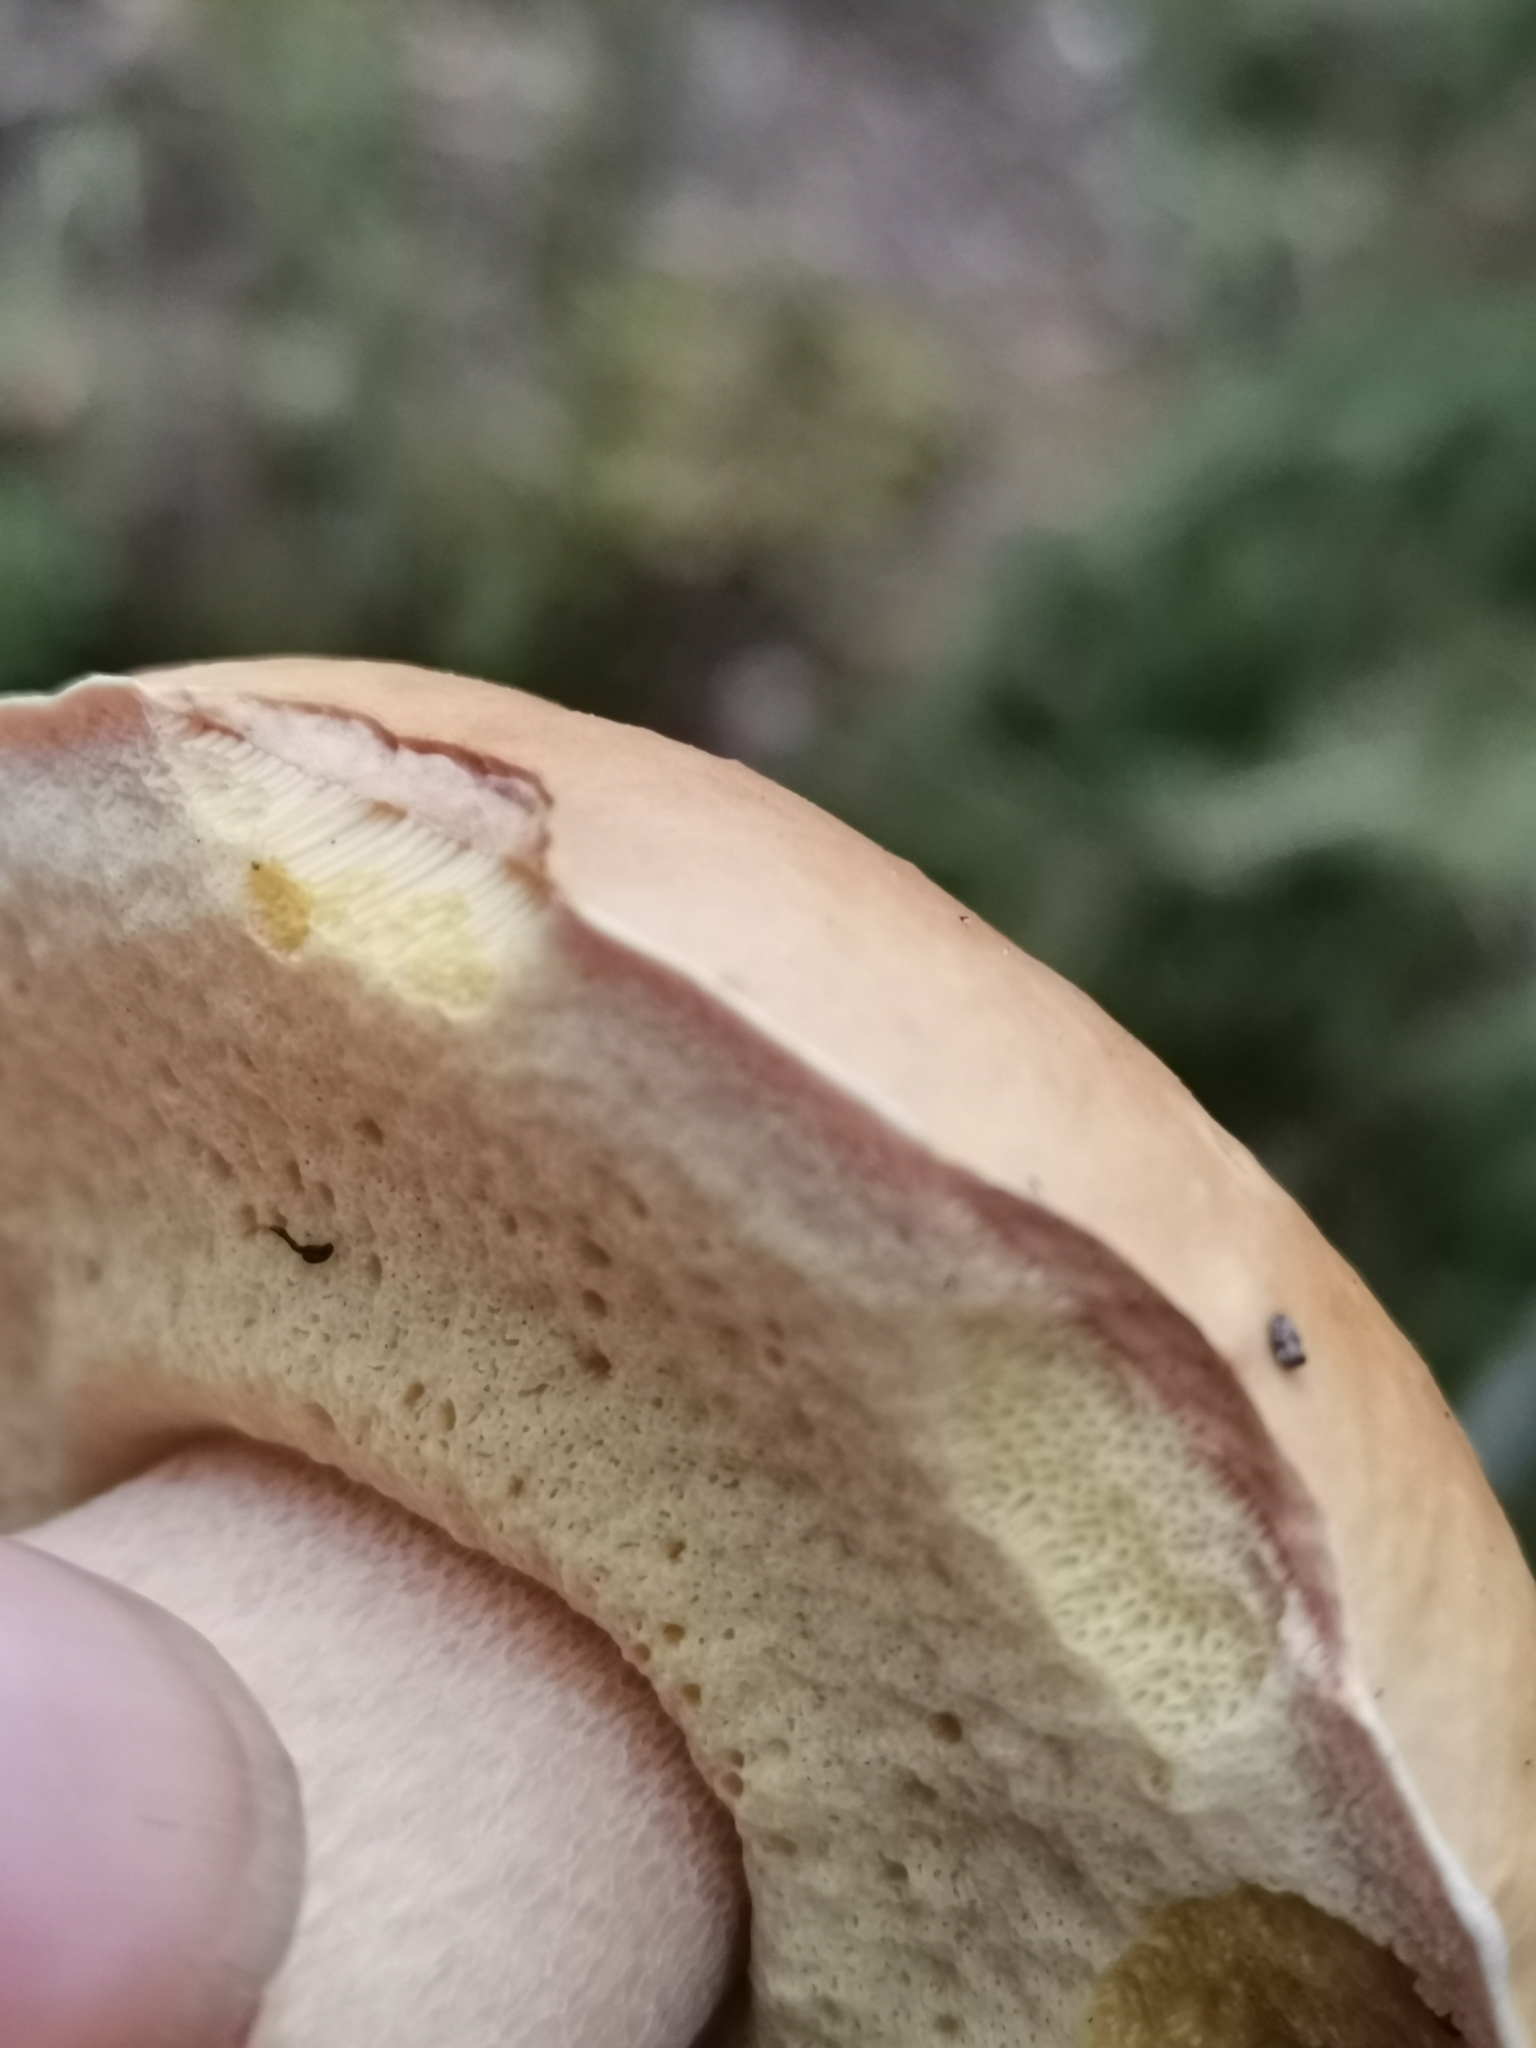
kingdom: Fungi
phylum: Basidiomycota
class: Agaricomycetes
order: Boletales
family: Boletaceae
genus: Boletus
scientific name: Boletus edulis
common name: Cep
